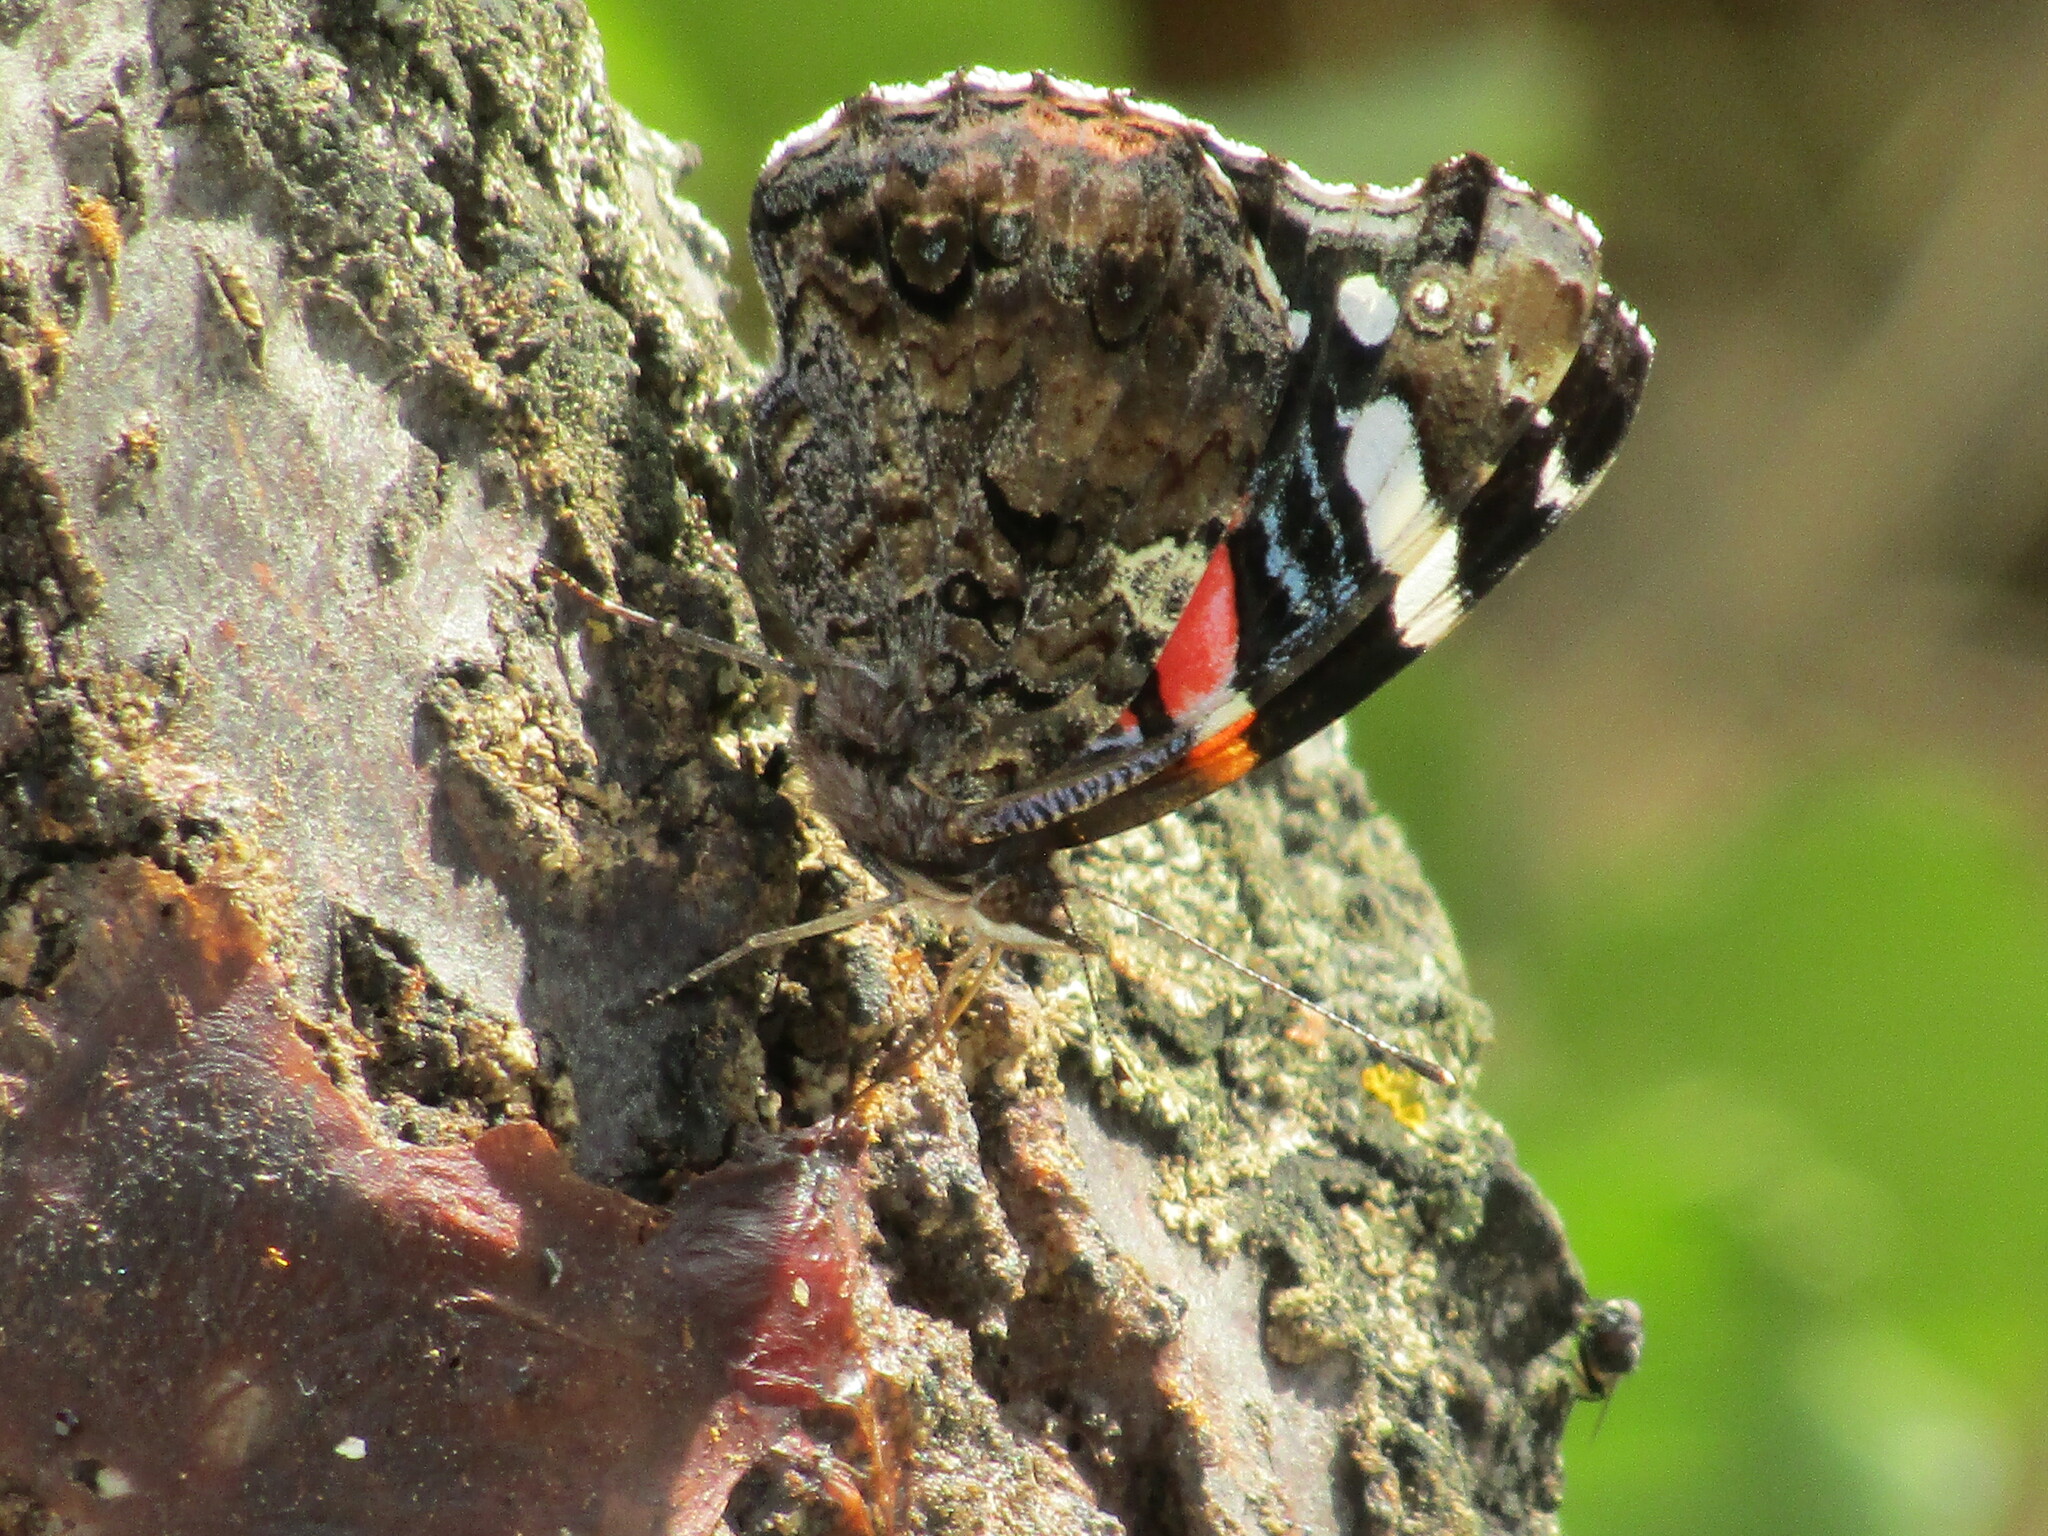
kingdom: Animalia
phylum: Arthropoda
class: Insecta
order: Lepidoptera
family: Nymphalidae
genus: Vanessa
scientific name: Vanessa atalanta
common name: Red admiral
